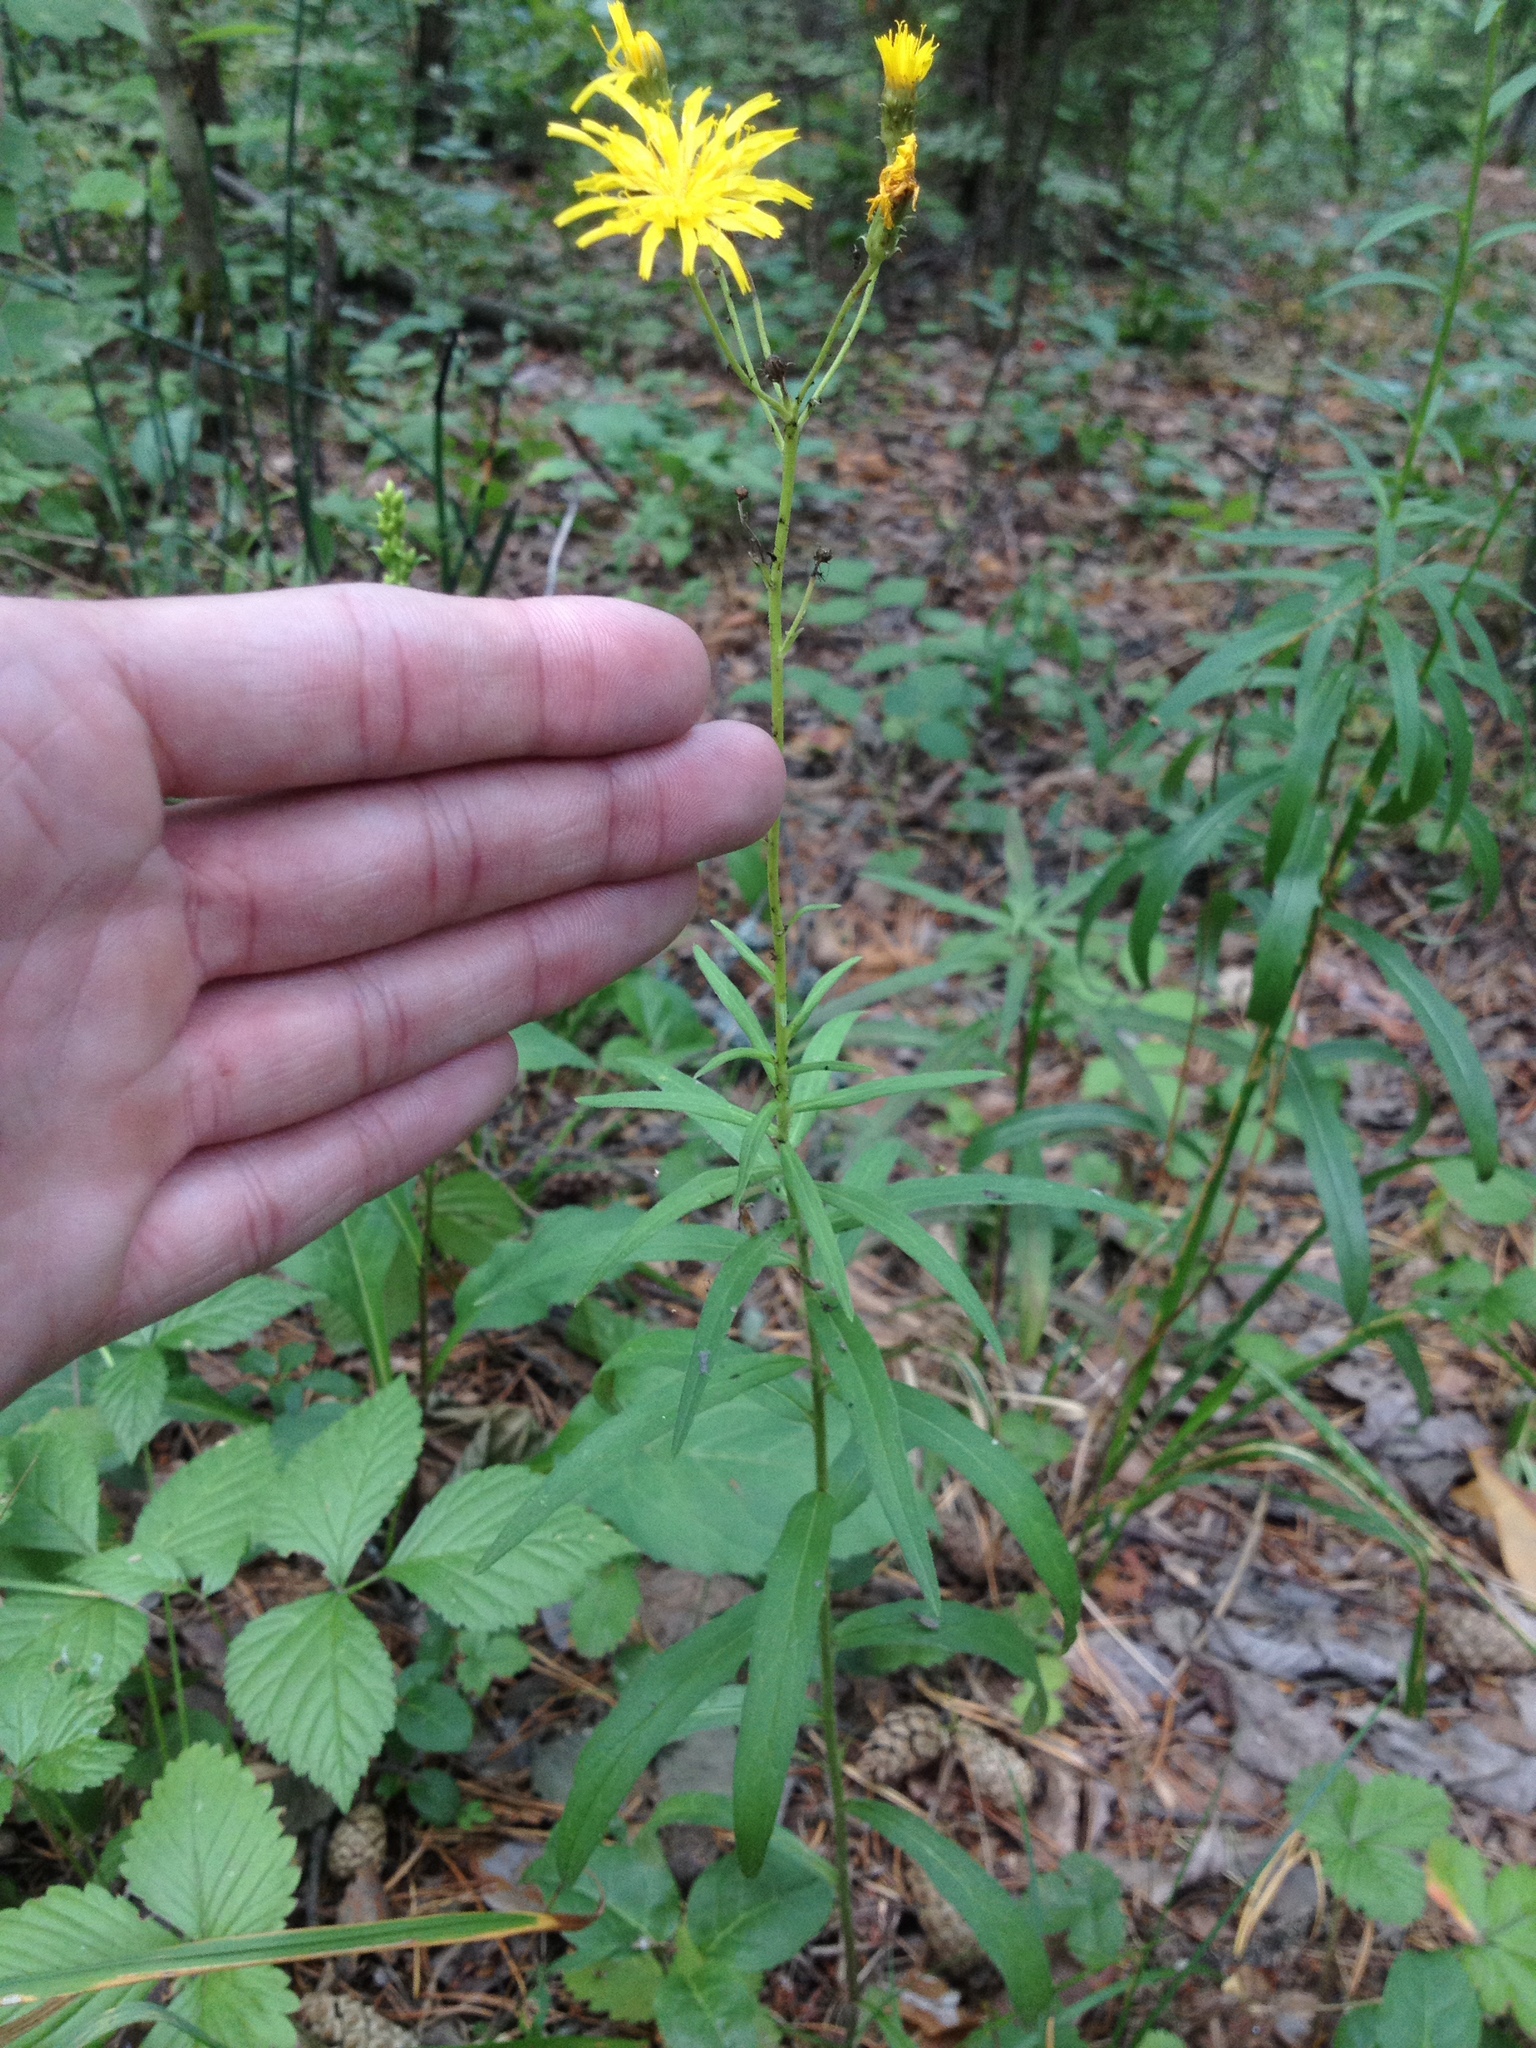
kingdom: Plantae
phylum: Tracheophyta
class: Magnoliopsida
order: Asterales
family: Asteraceae
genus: Hieracium
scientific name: Hieracium umbellatum
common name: Northern hawkweed
